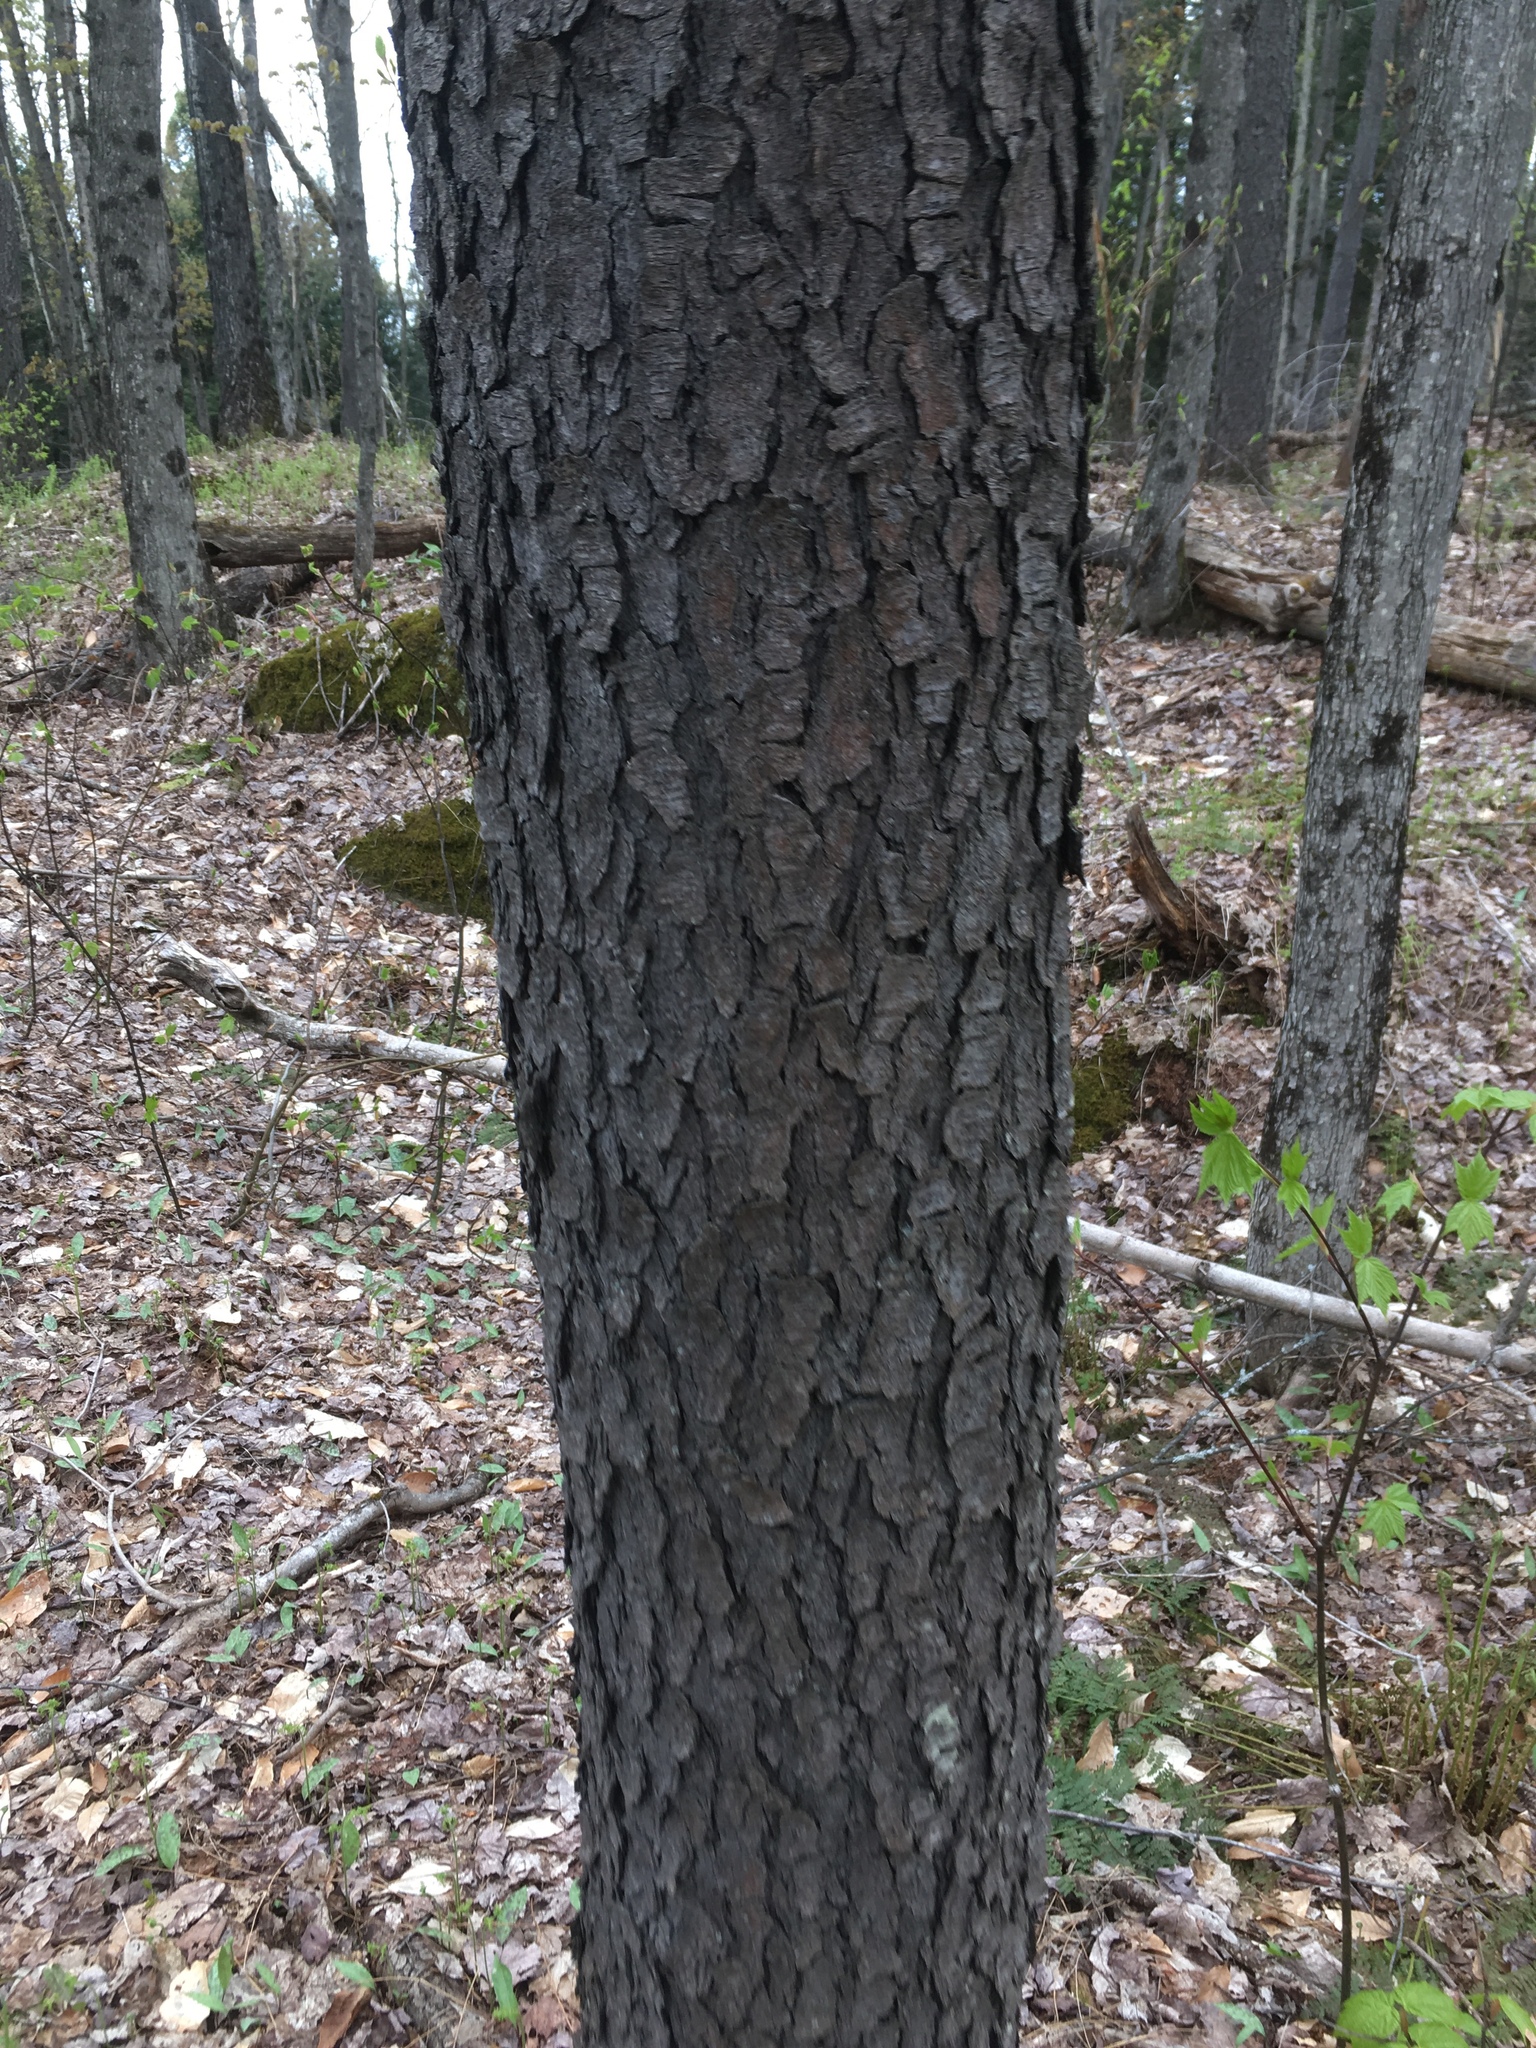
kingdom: Plantae
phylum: Tracheophyta
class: Magnoliopsida
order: Rosales
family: Rosaceae
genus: Prunus
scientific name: Prunus serotina
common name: Black cherry
